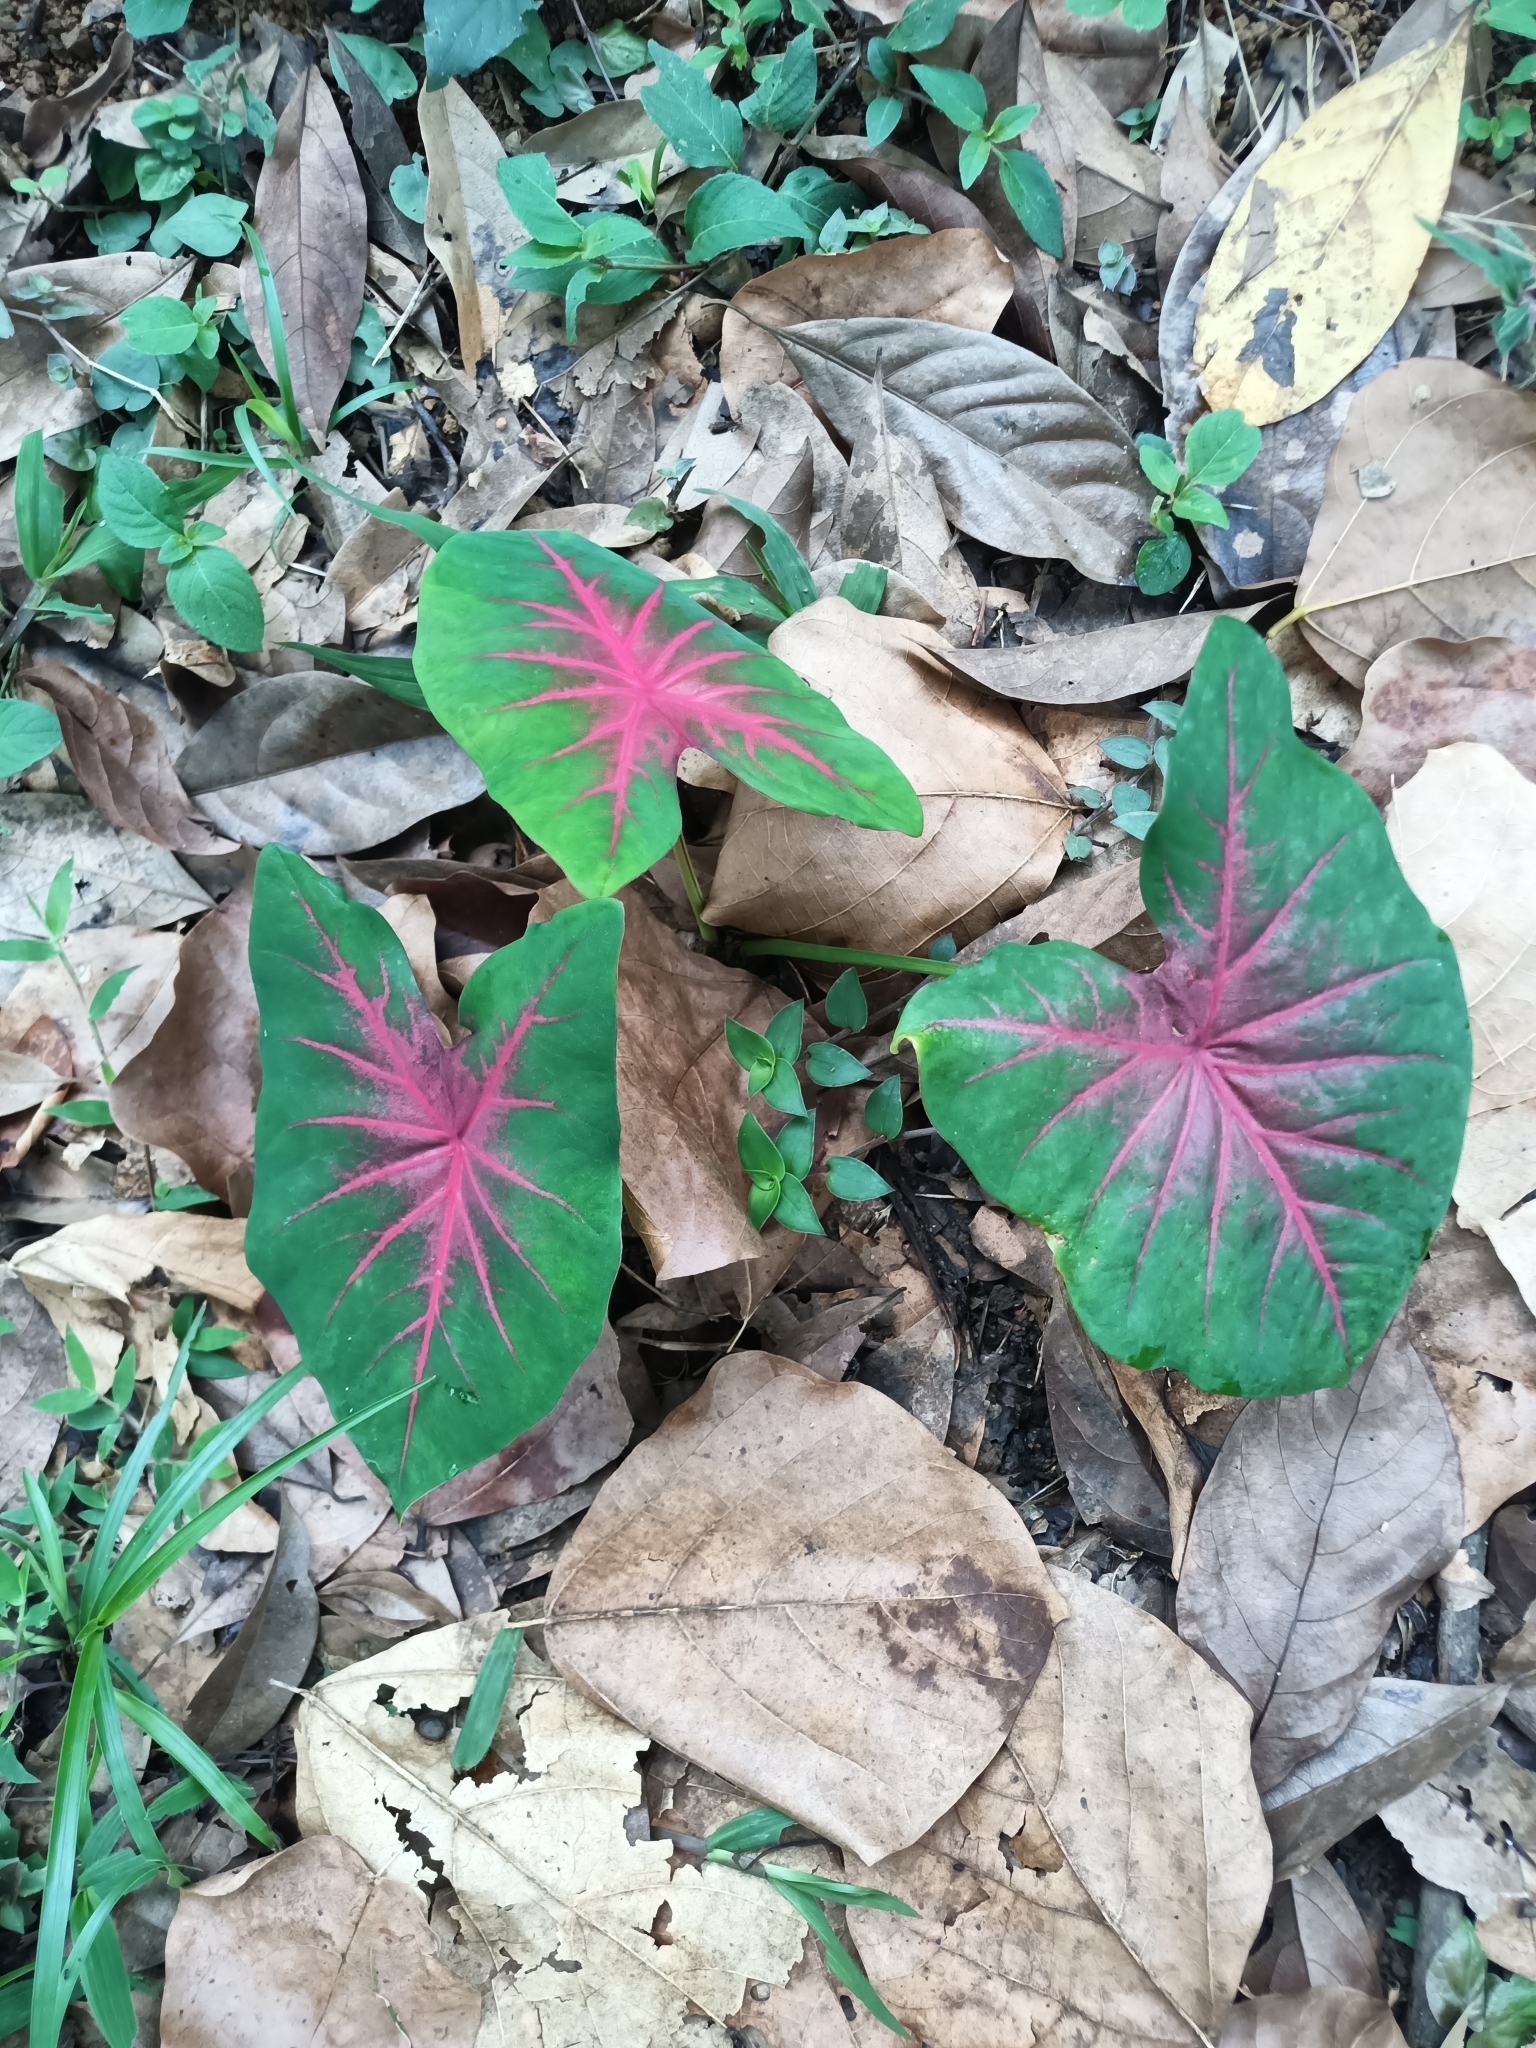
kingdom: Plantae
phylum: Tracheophyta
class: Liliopsida
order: Alismatales
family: Araceae
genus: Caladium
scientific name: Caladium bicolor
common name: Artist's pallet
